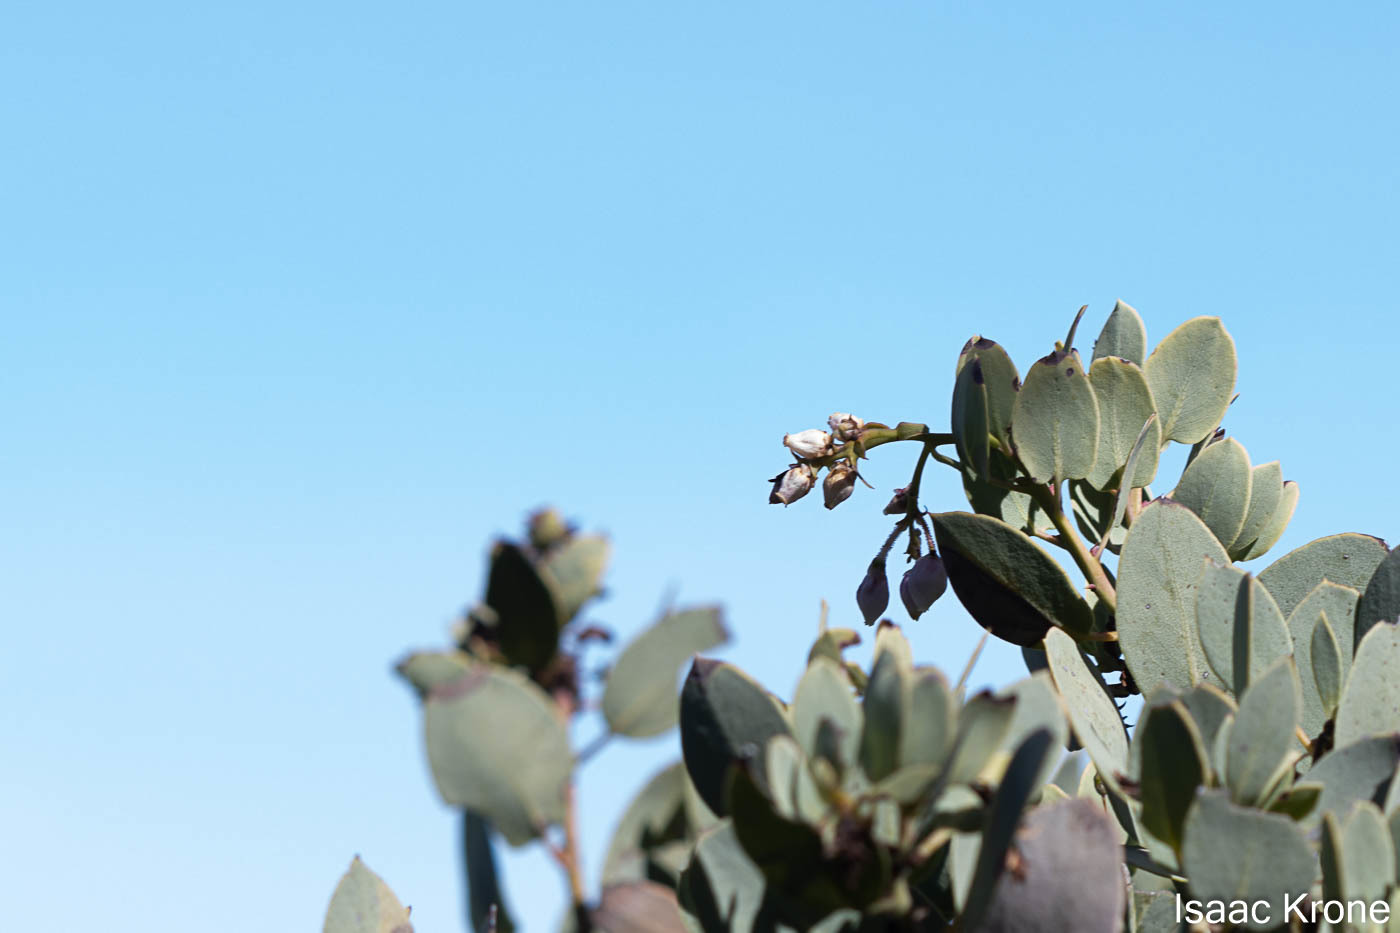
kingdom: Plantae
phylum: Tracheophyta
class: Magnoliopsida
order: Ericales
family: Ericaceae
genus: Arctostaphylos
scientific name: Arctostaphylos glauca
